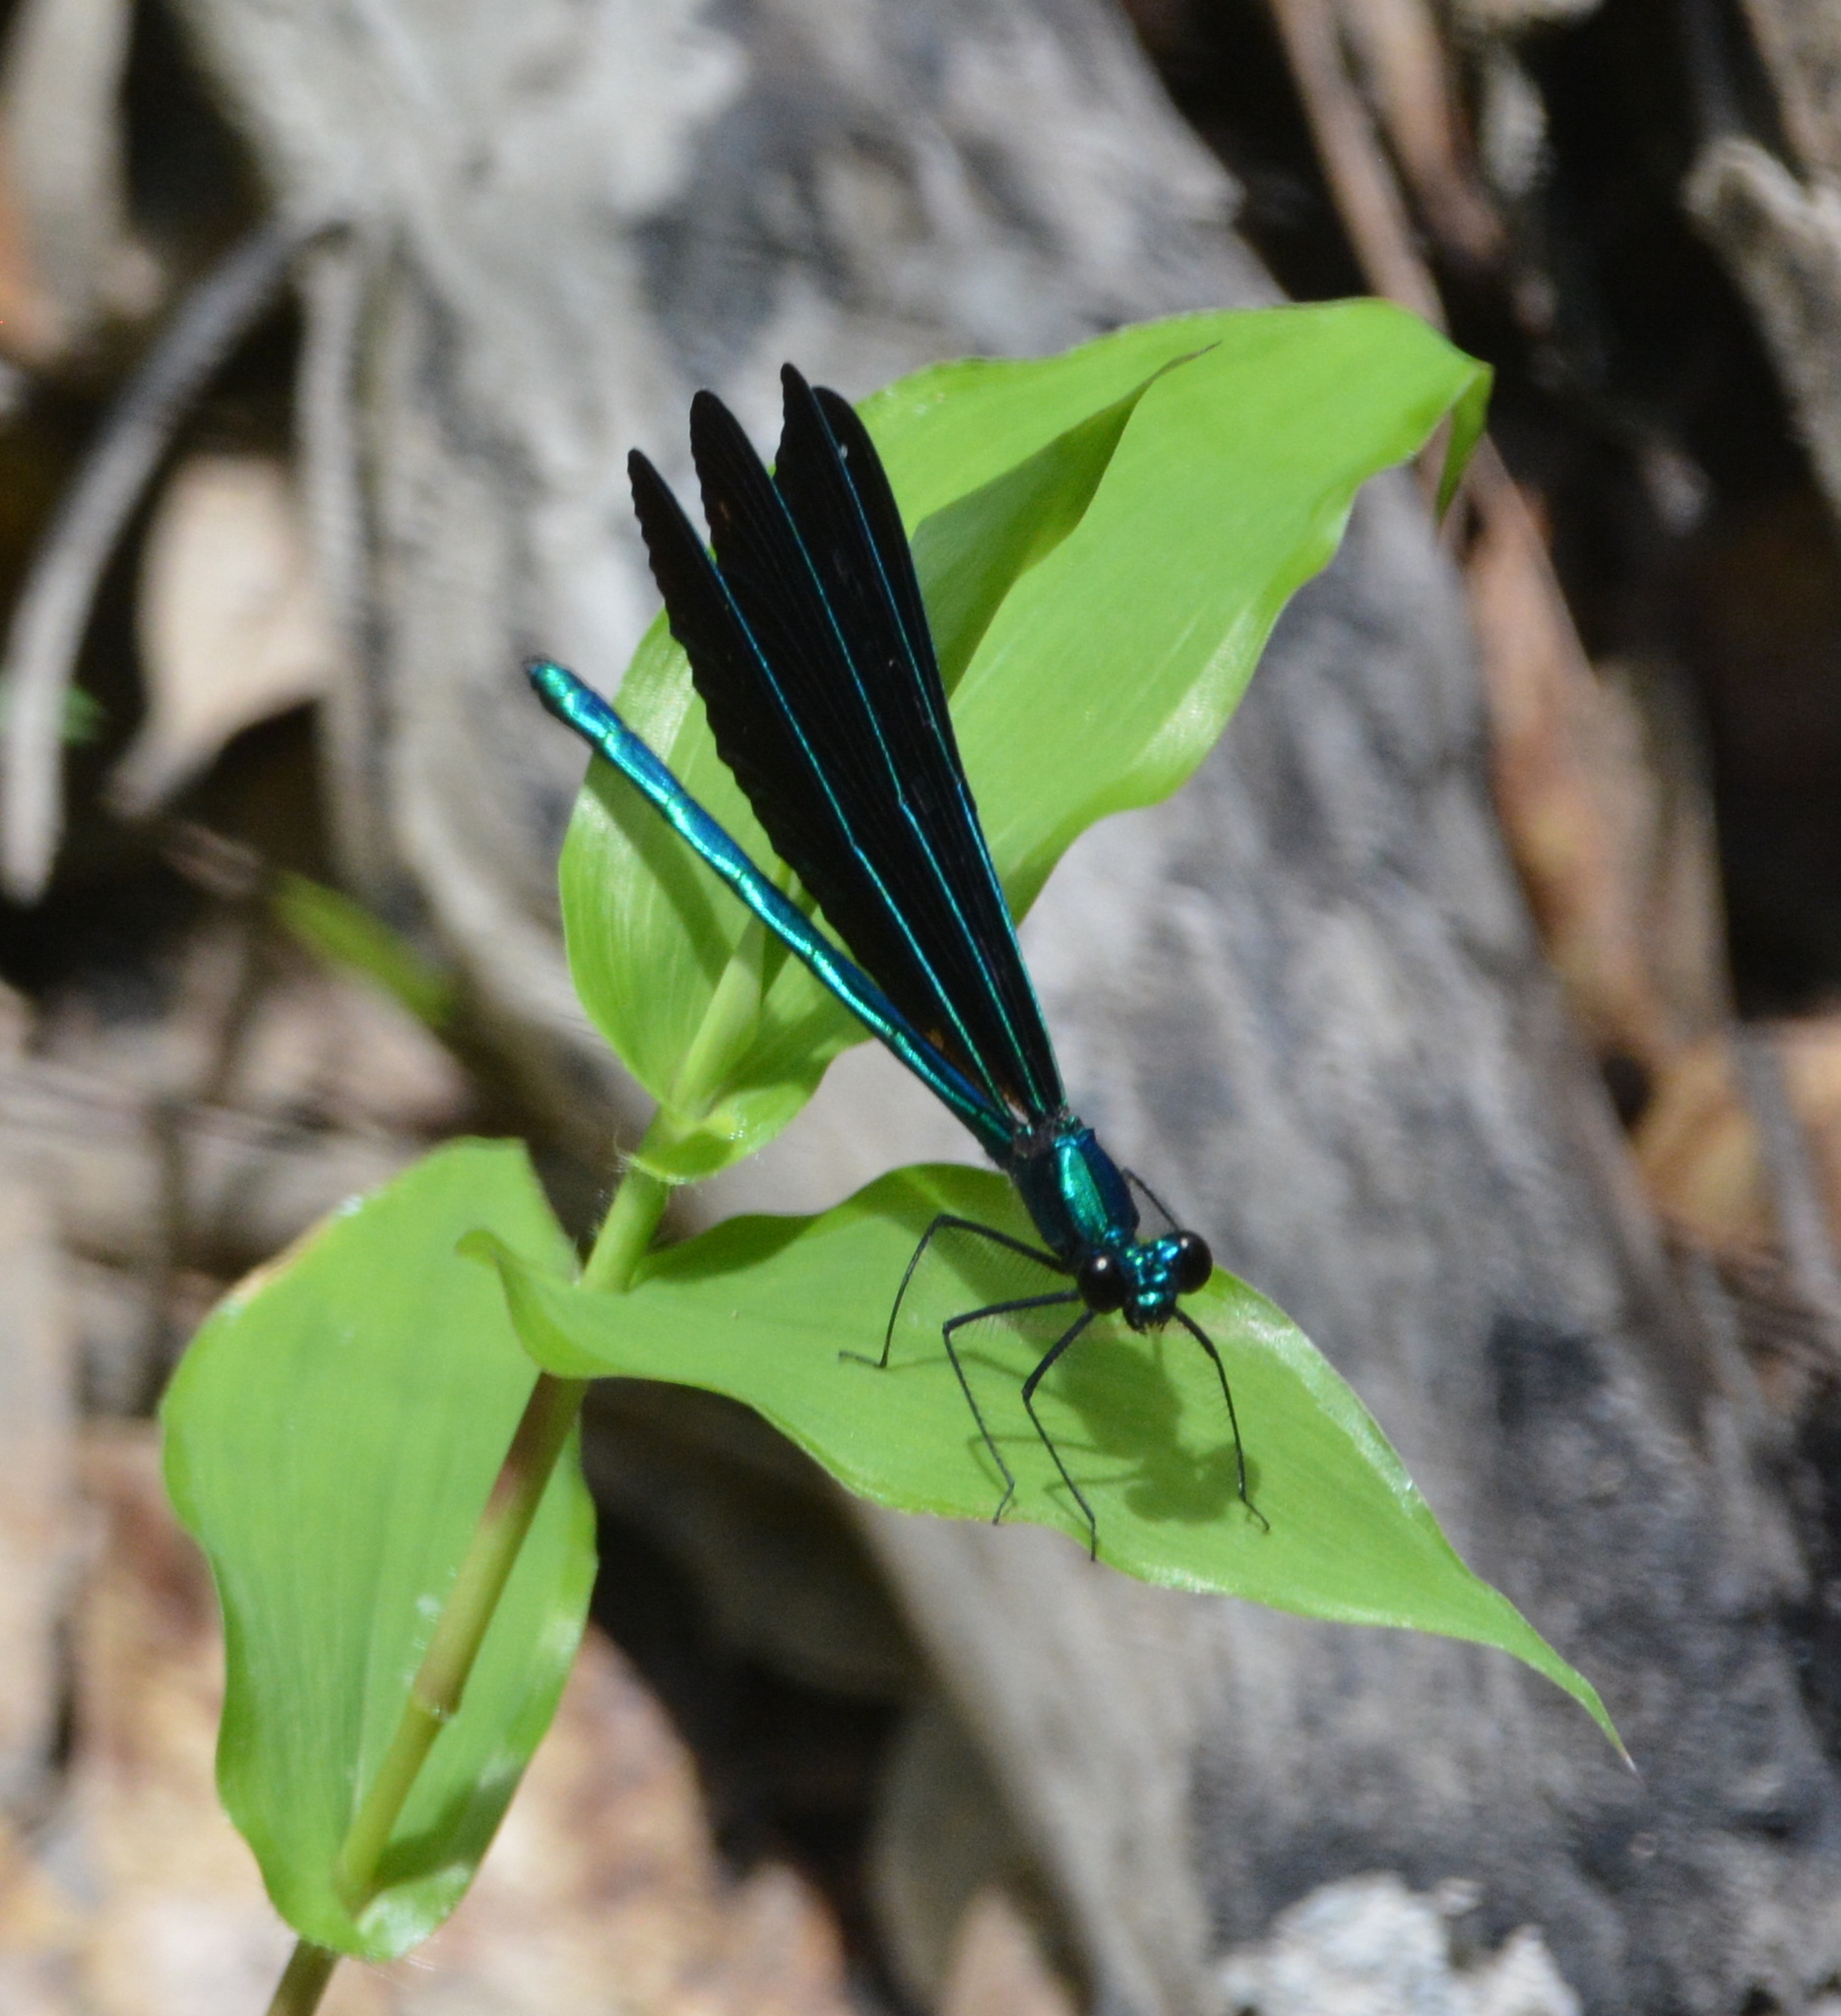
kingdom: Animalia
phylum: Arthropoda
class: Insecta
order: Odonata
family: Calopterygidae
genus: Calopteryx
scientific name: Calopteryx maculata
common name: Ebony jewelwing
